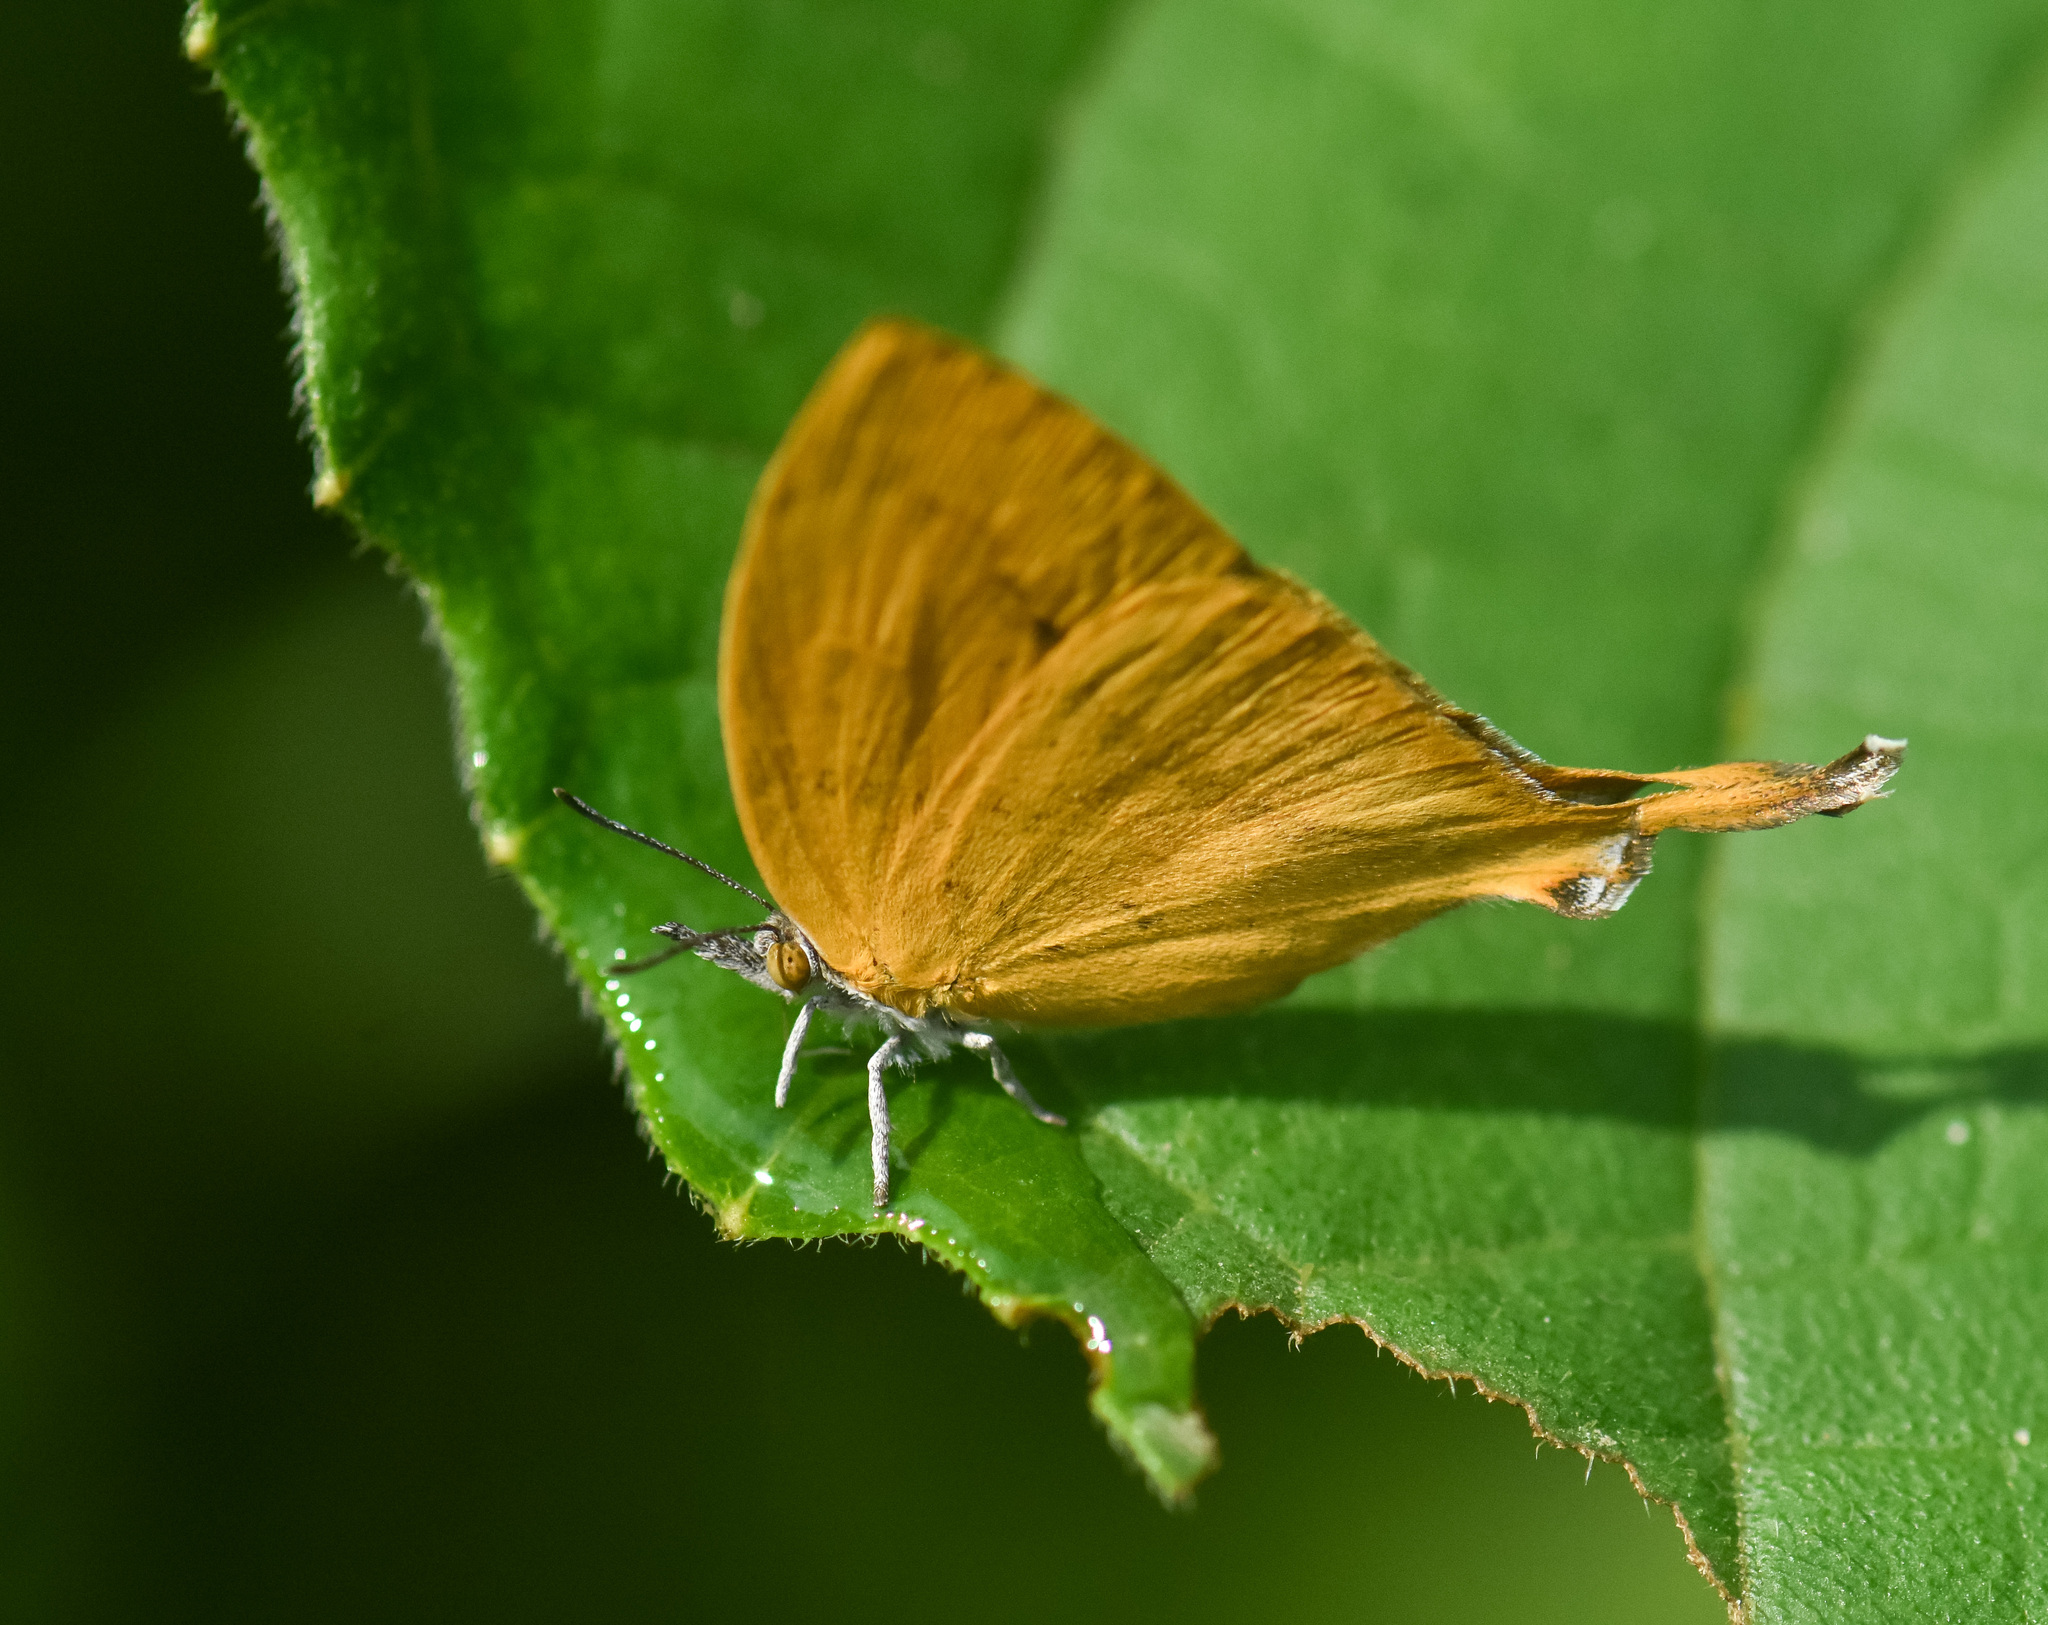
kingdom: Animalia
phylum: Arthropoda
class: Insecta
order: Lepidoptera
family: Lycaenidae
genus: Loxura
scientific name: Loxura atymnus
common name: Common yamfly
